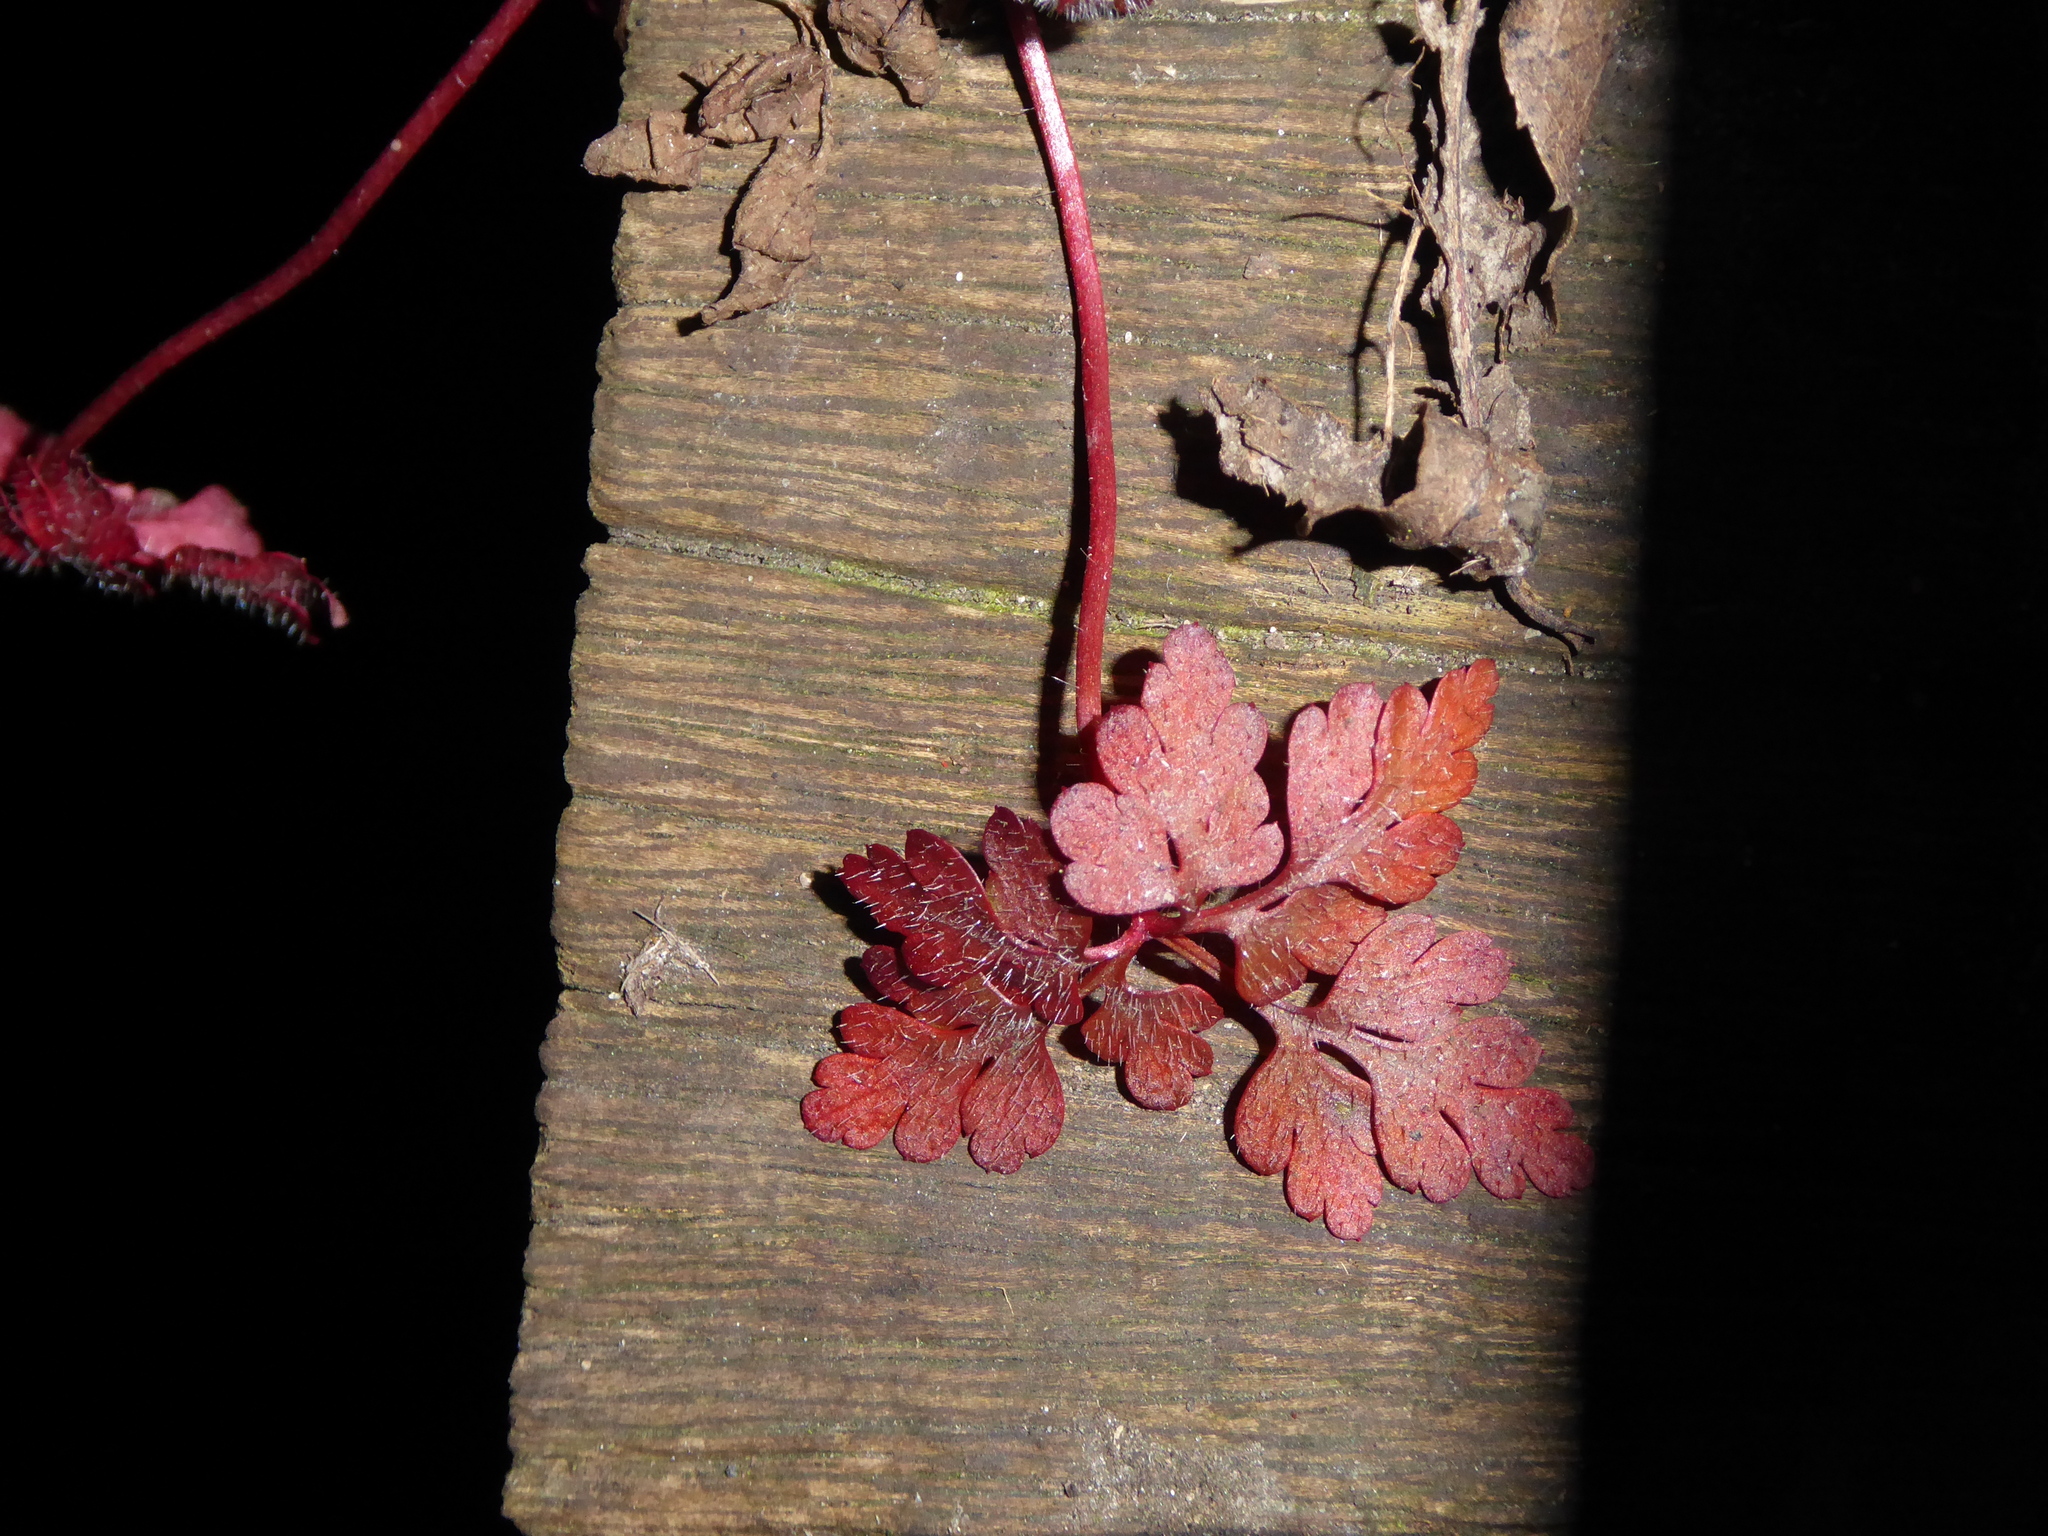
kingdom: Plantae
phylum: Tracheophyta
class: Magnoliopsida
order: Geraniales
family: Geraniaceae
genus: Geranium
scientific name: Geranium robertianum
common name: Herb-robert
